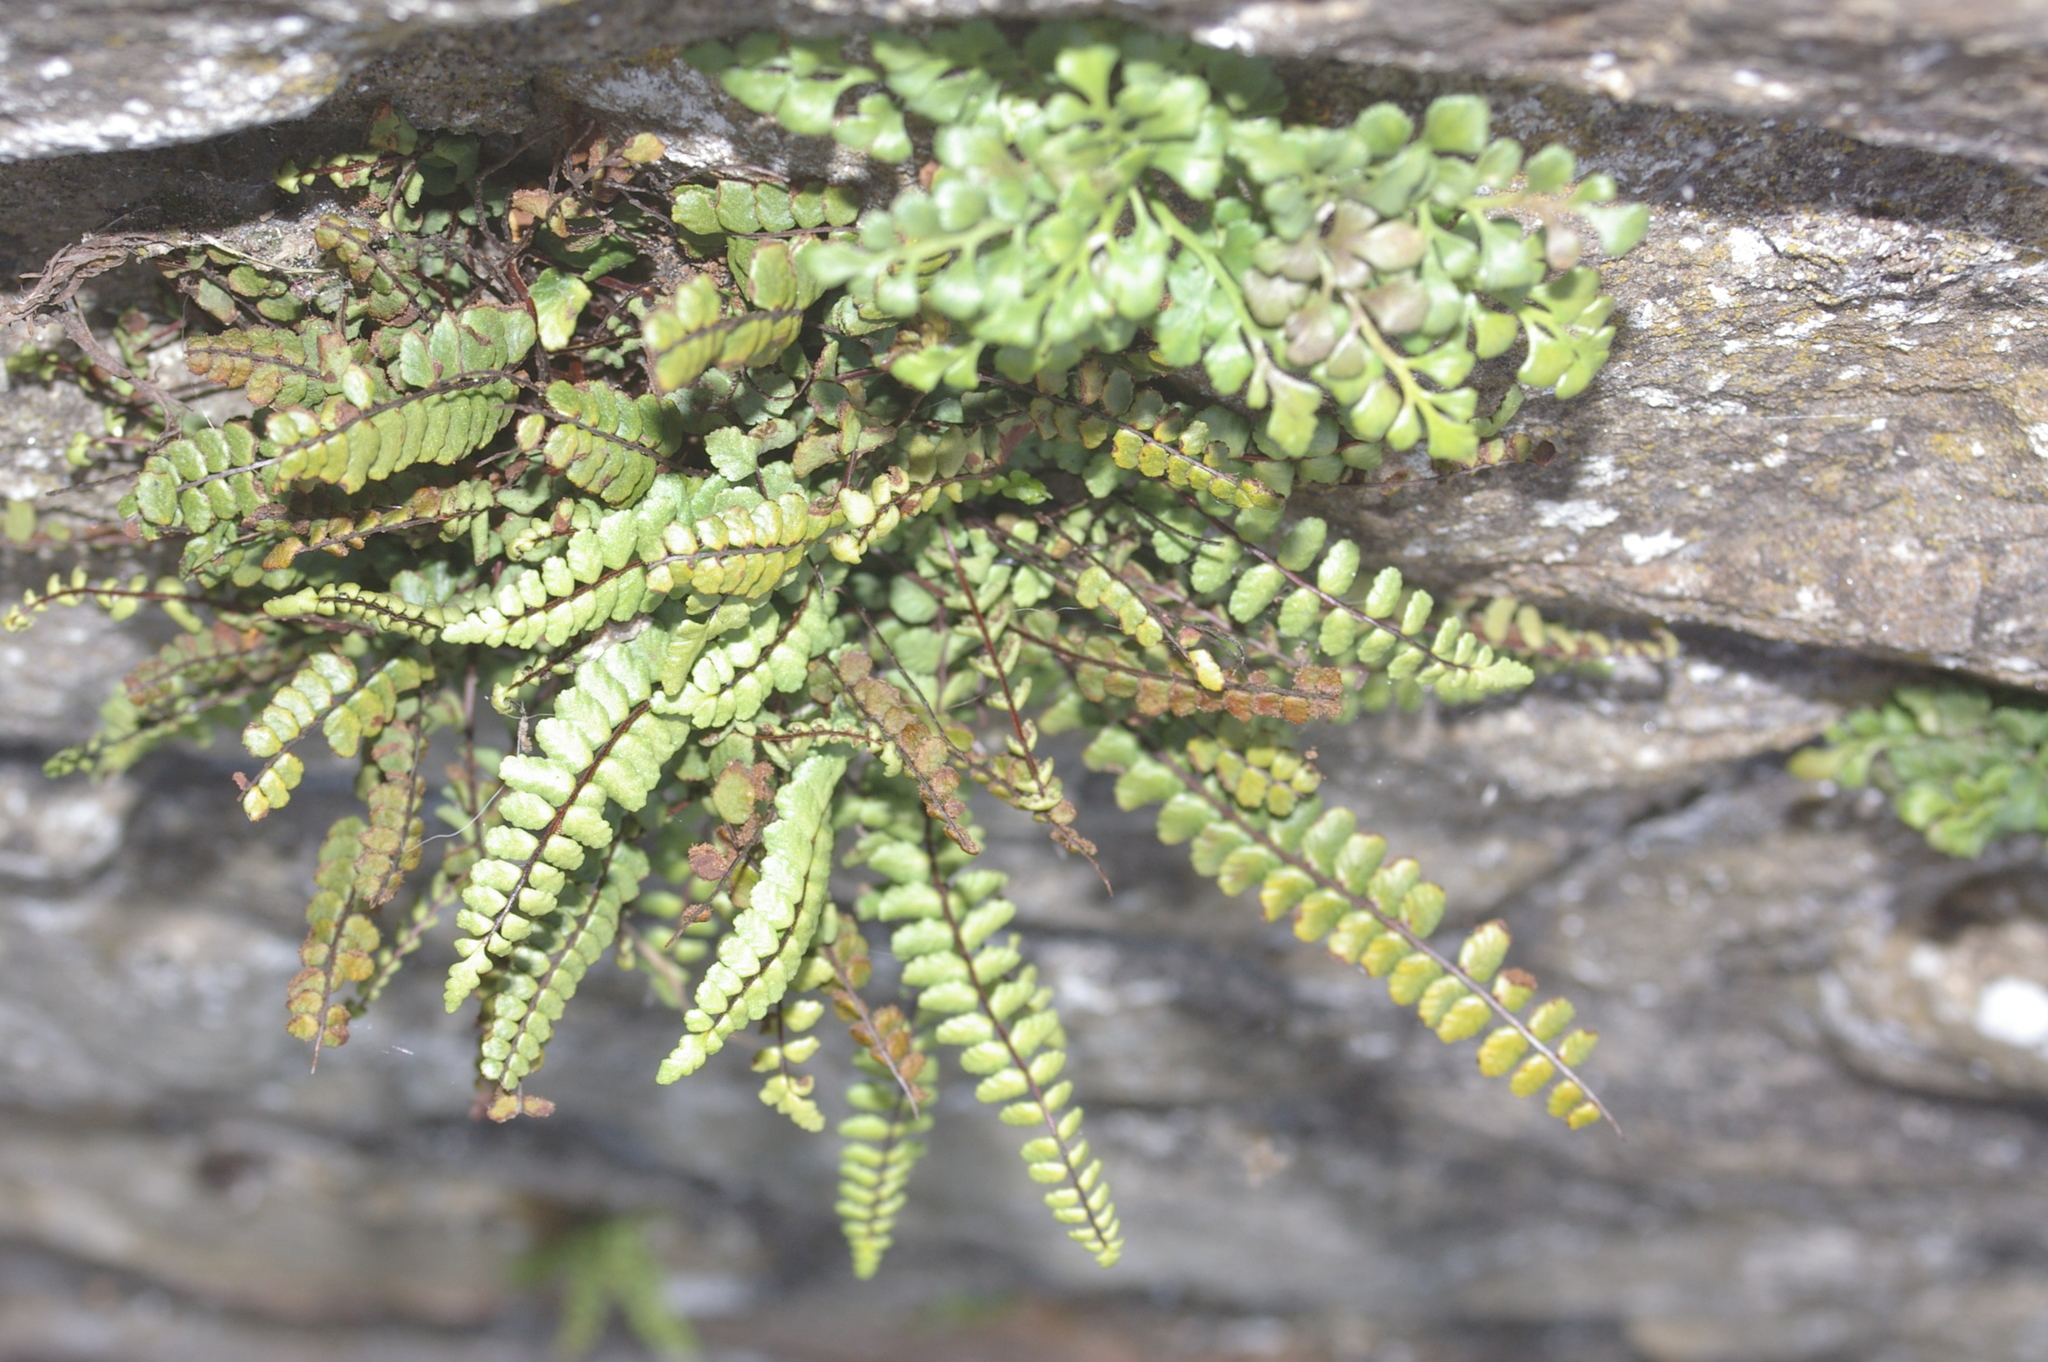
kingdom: Plantae
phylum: Tracheophyta
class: Polypodiopsida
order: Polypodiales
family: Aspleniaceae
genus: Asplenium
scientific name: Asplenium trichomanes
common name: Maidenhair spleenwort
